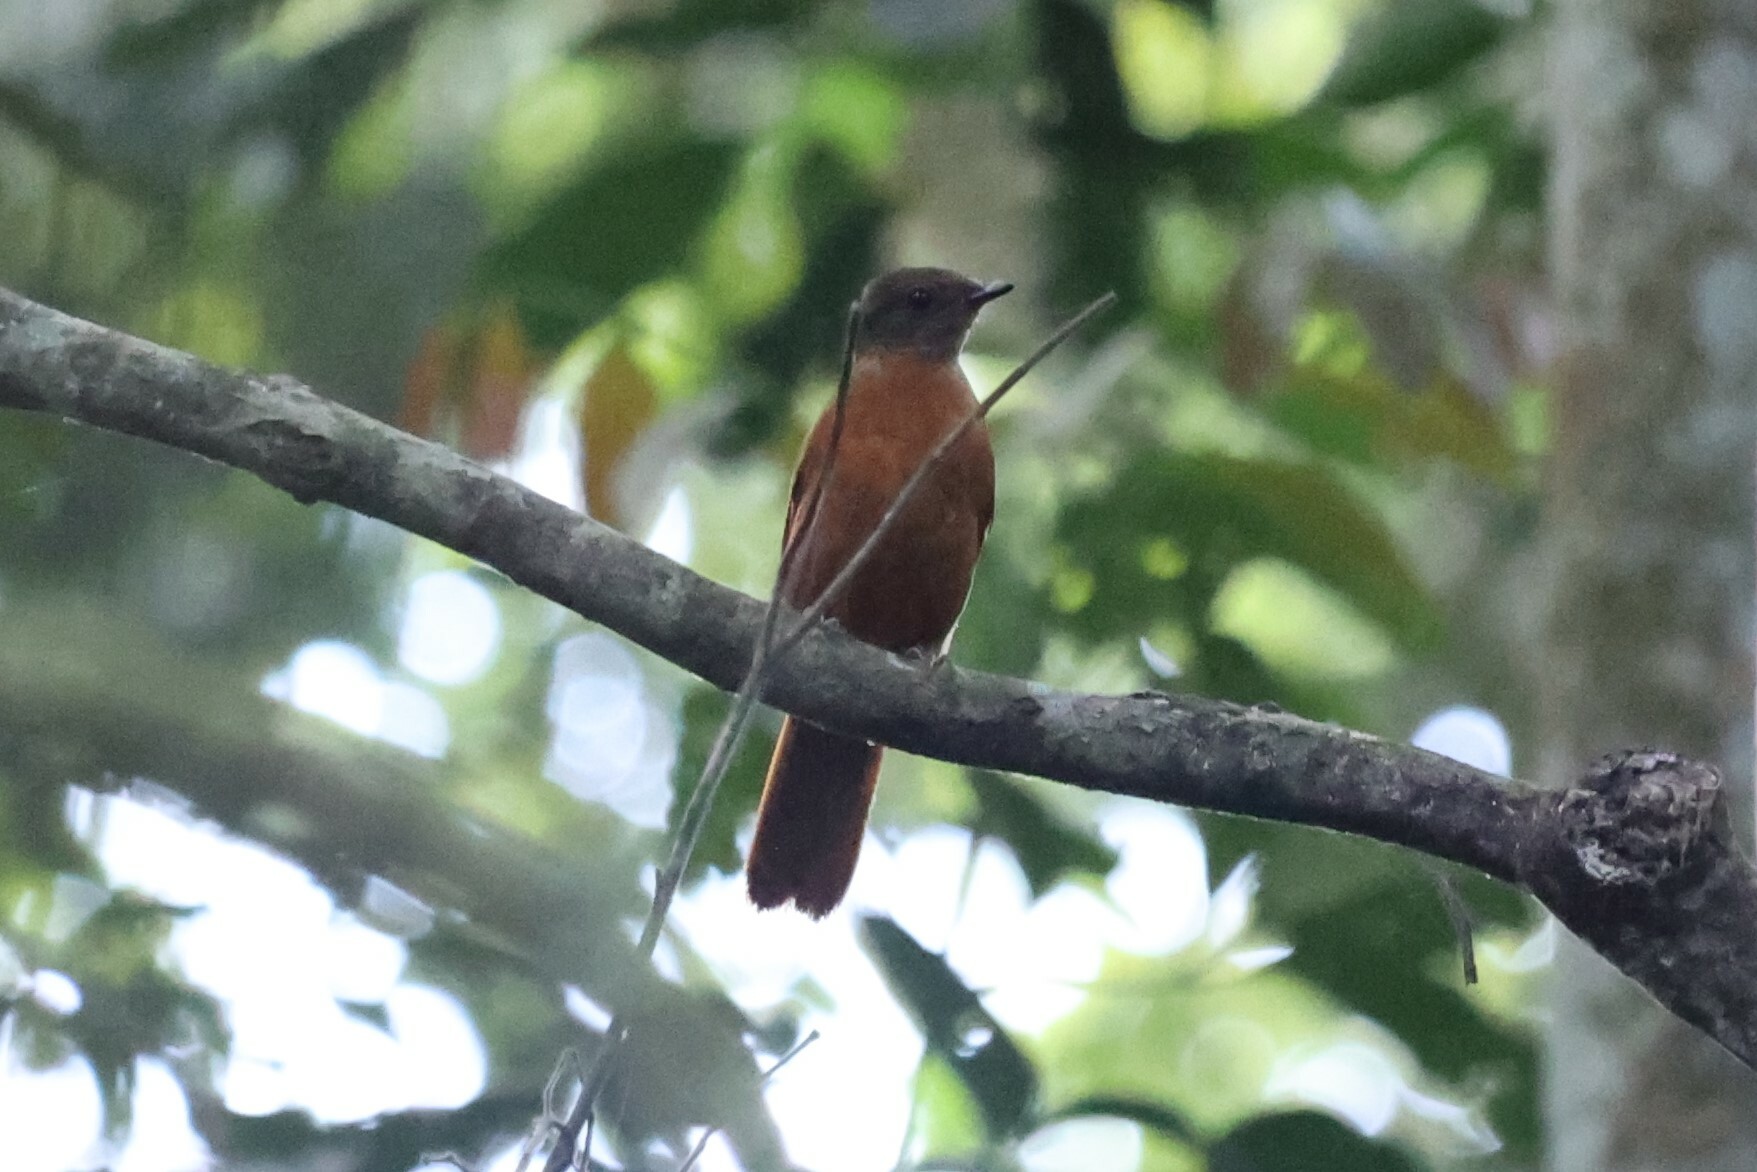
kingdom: Animalia
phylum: Chordata
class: Aves
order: Passeriformes
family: Turdidae
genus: Stizorhina
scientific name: Stizorhina fraseri
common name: Fraser's rufous thrush
